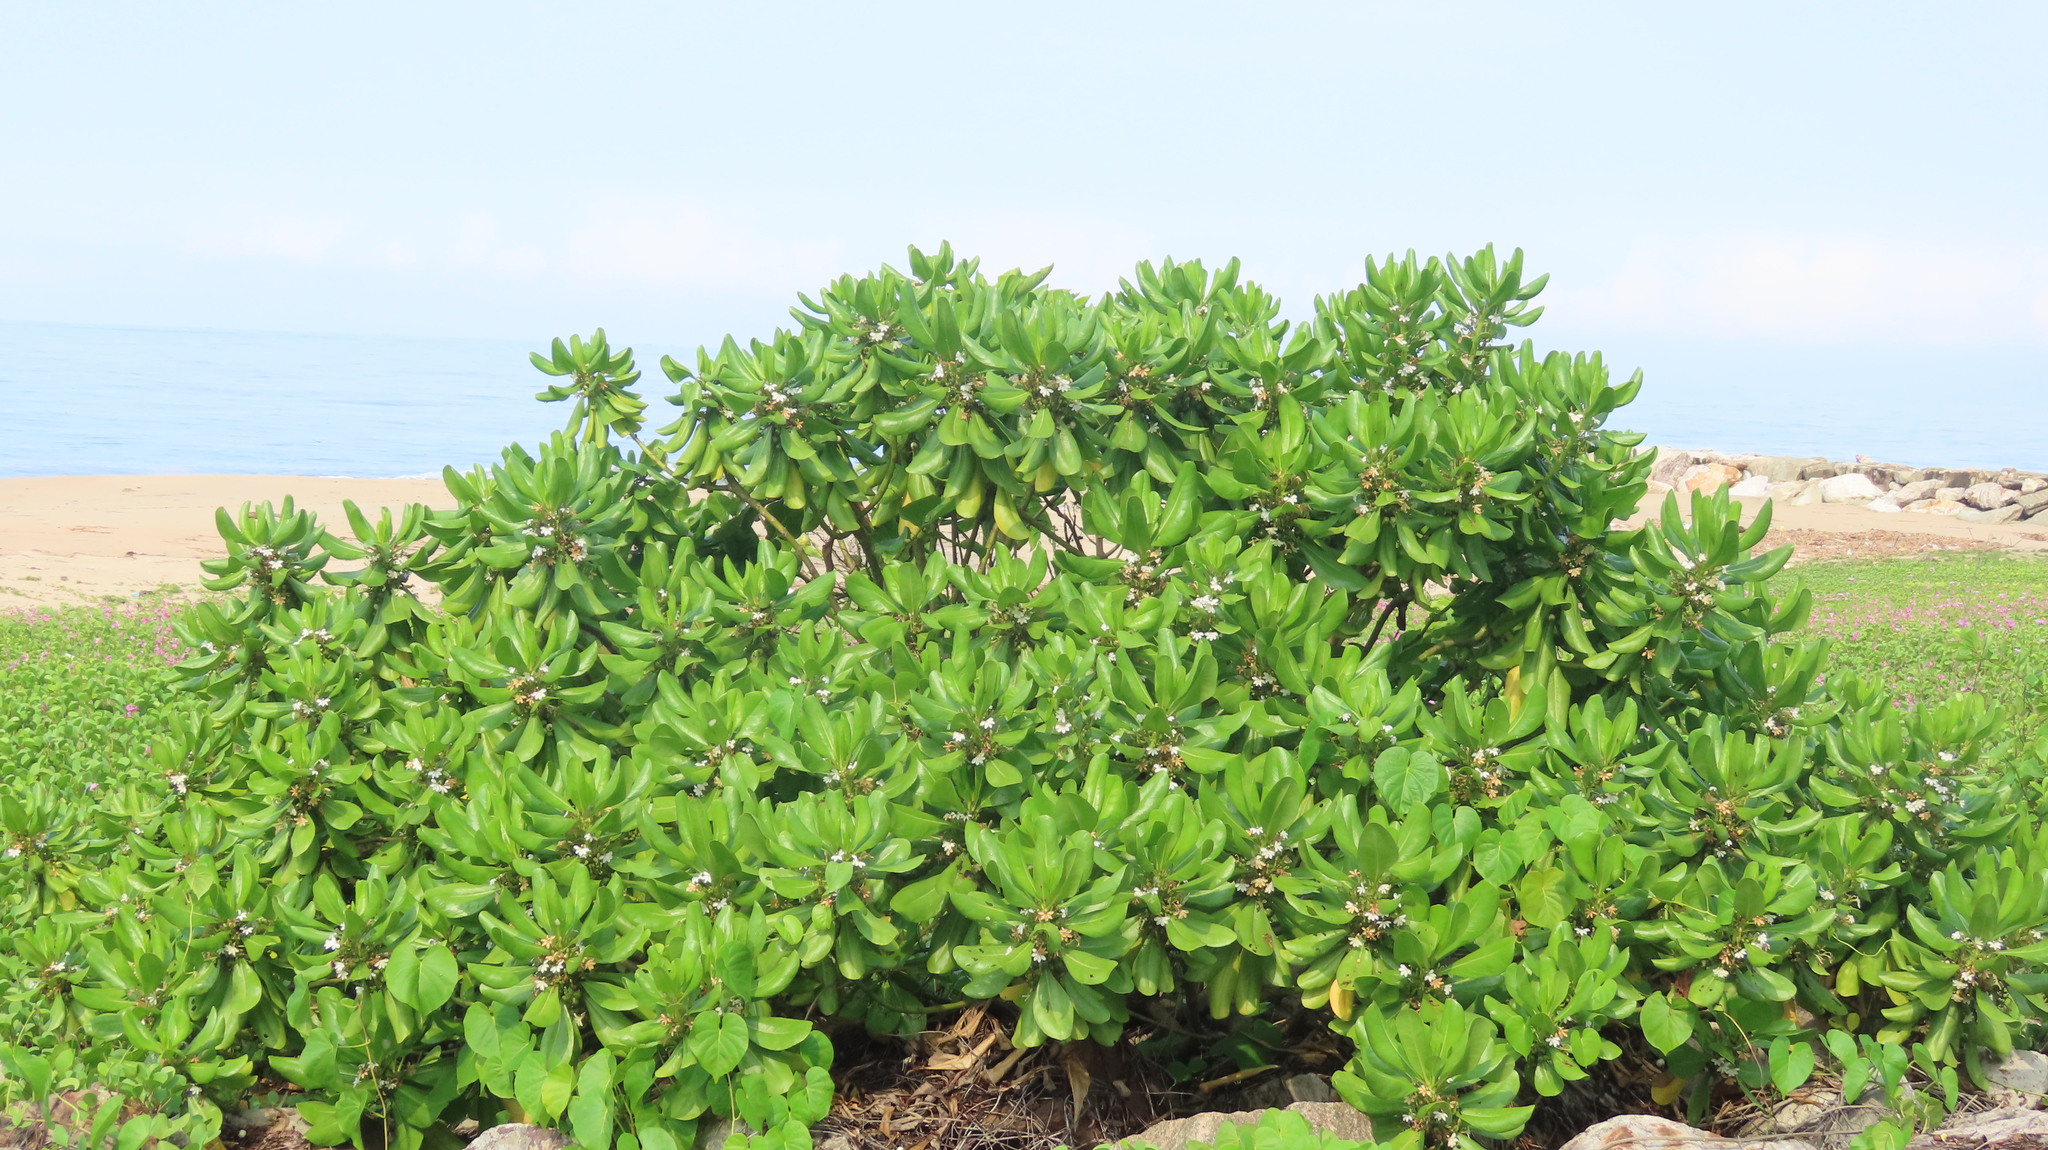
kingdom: Plantae
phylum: Tracheophyta
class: Magnoliopsida
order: Asterales
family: Goodeniaceae
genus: Scaevola
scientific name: Scaevola taccada
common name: Sea lettucetree
